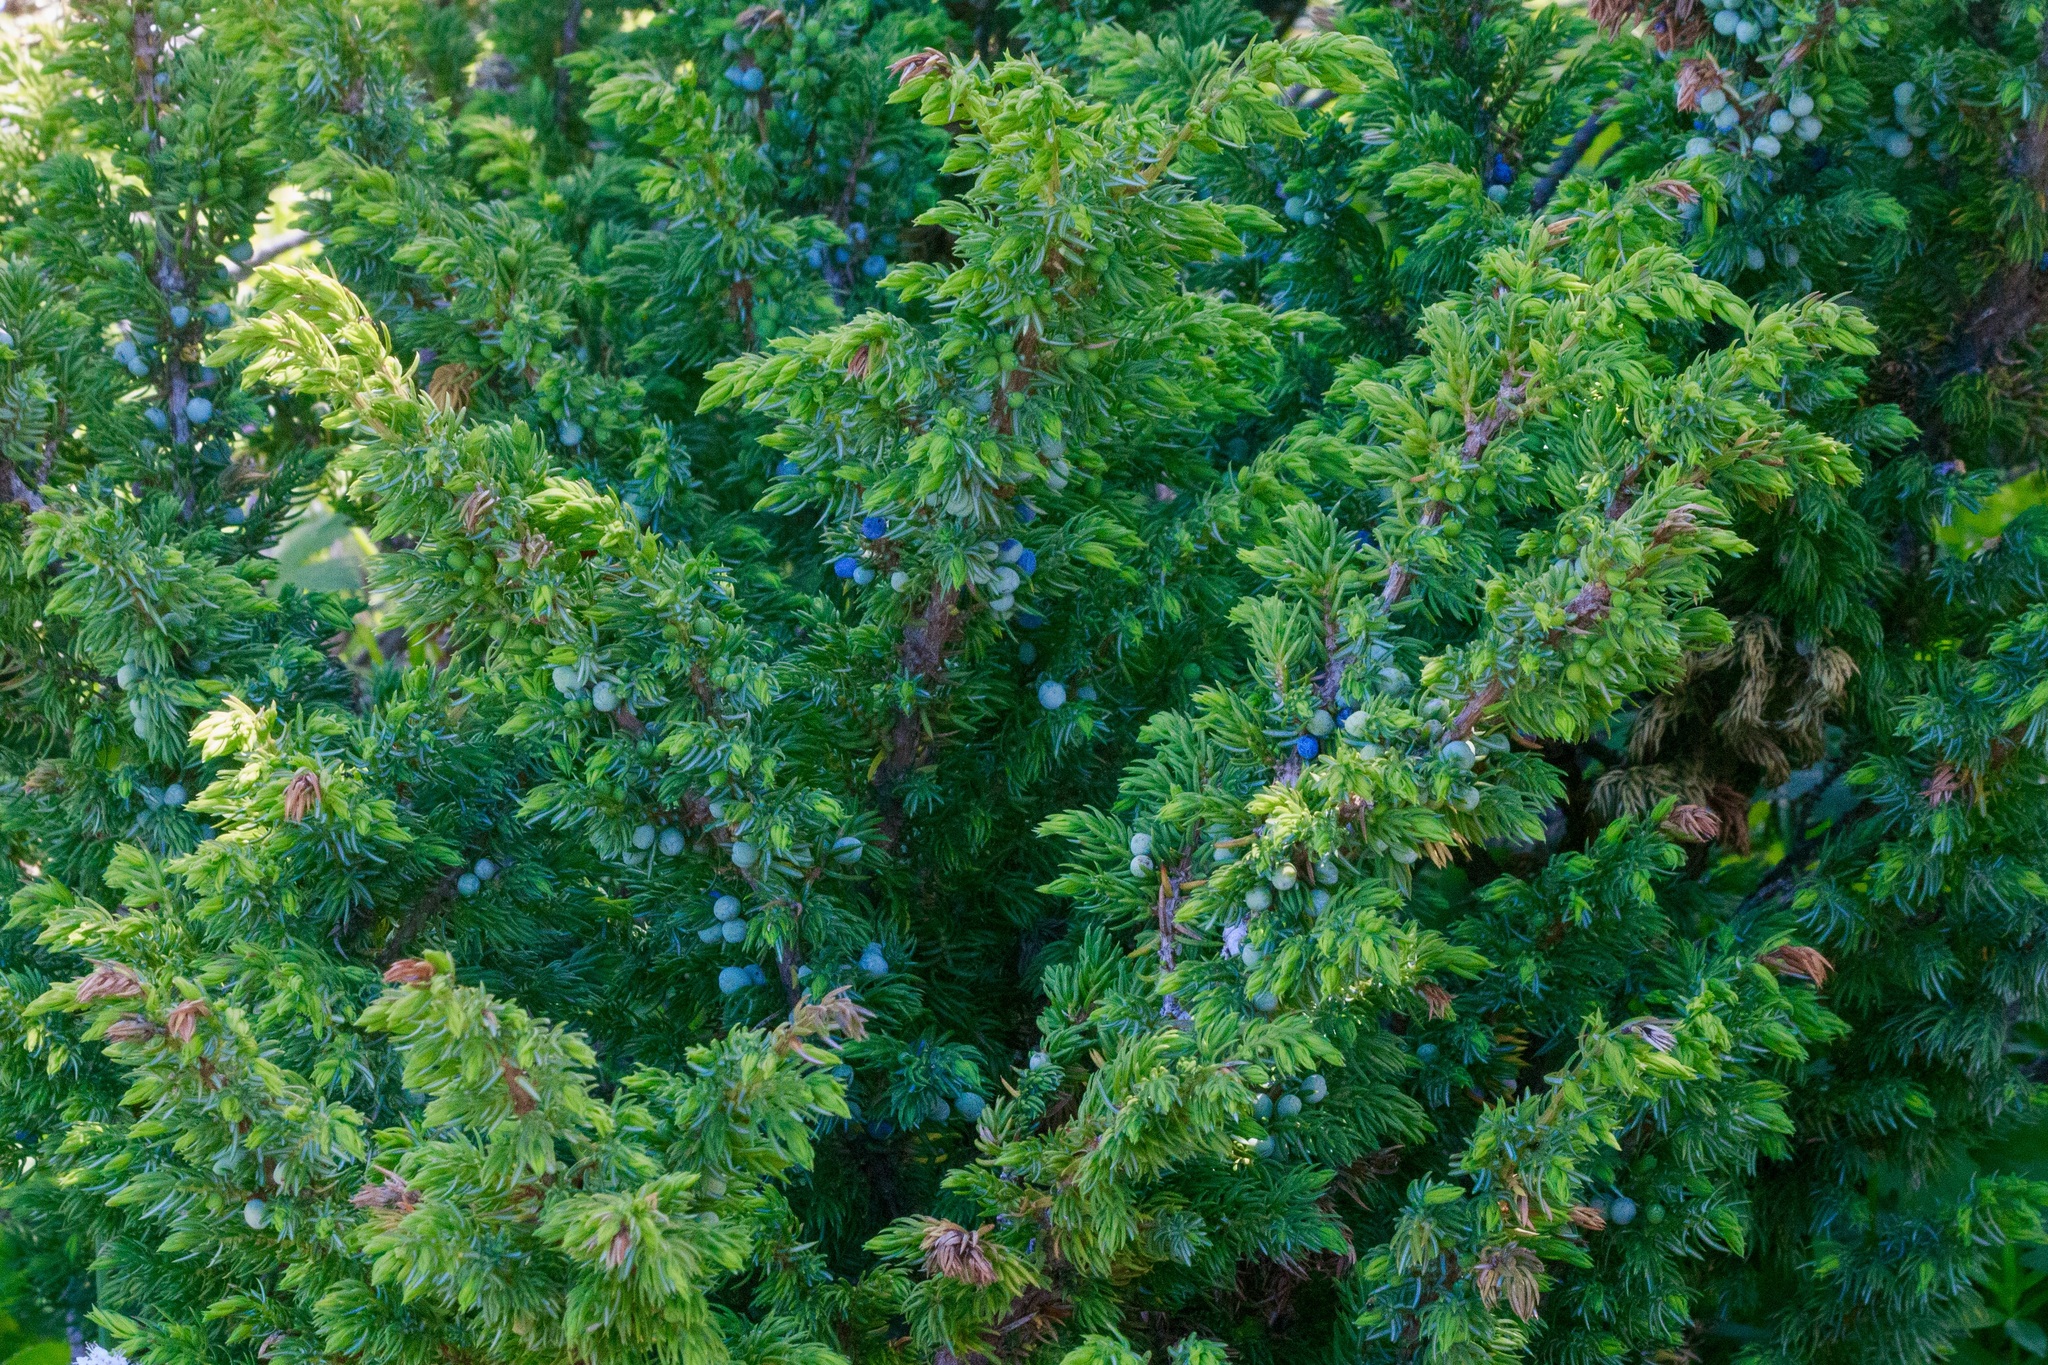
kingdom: Plantae
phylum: Tracheophyta
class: Pinopsida
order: Pinales
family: Cupressaceae
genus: Juniperus
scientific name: Juniperus communis
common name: Common juniper
